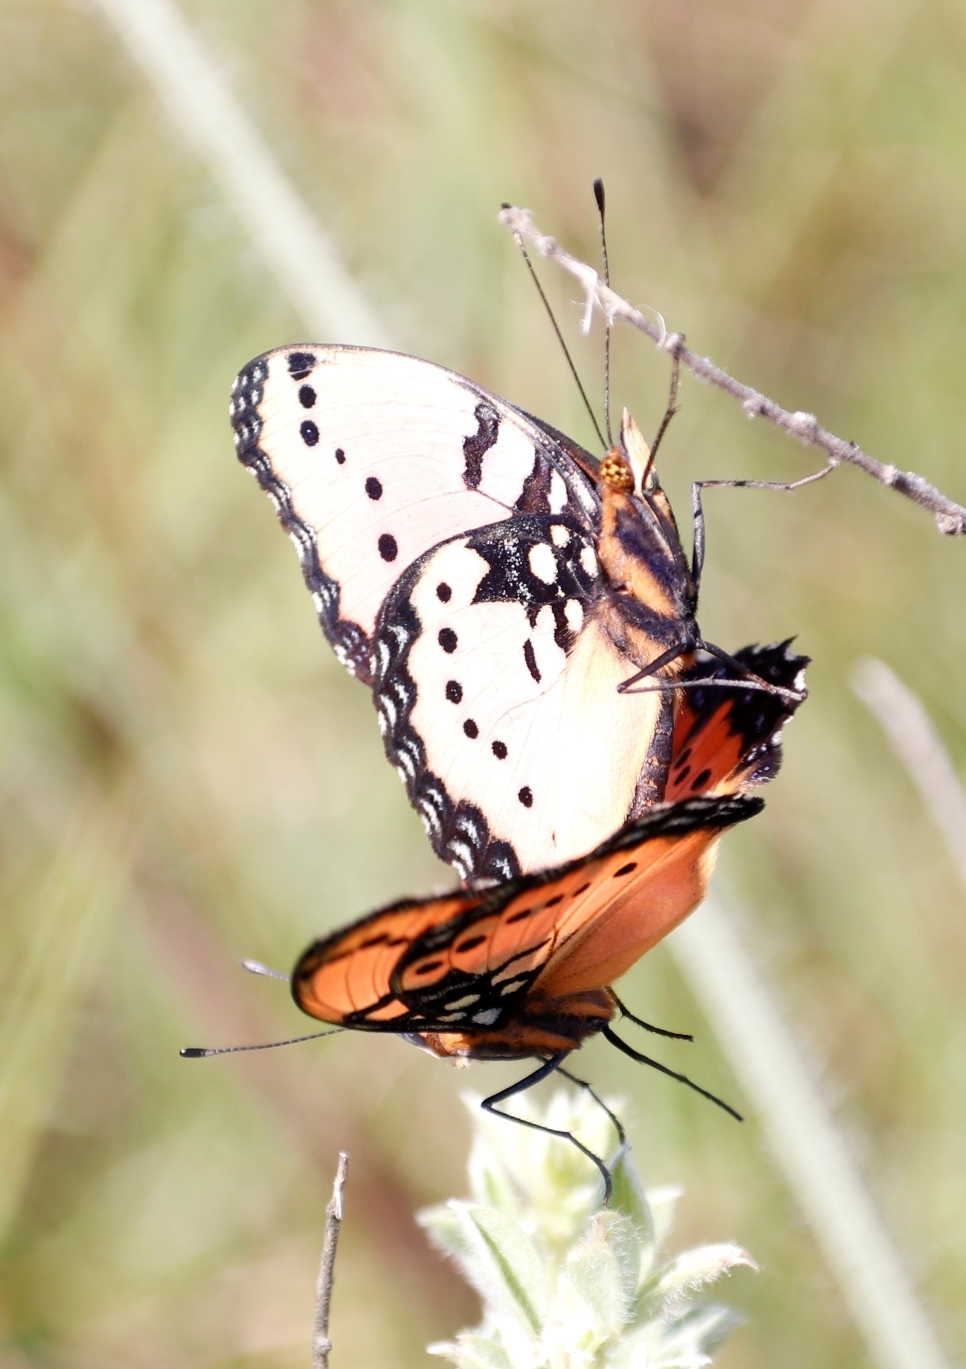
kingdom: Animalia
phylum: Arthropoda
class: Insecta
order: Lepidoptera
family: Nymphalidae
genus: Precis
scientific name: Precis octavia
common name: Gaudy commodore
